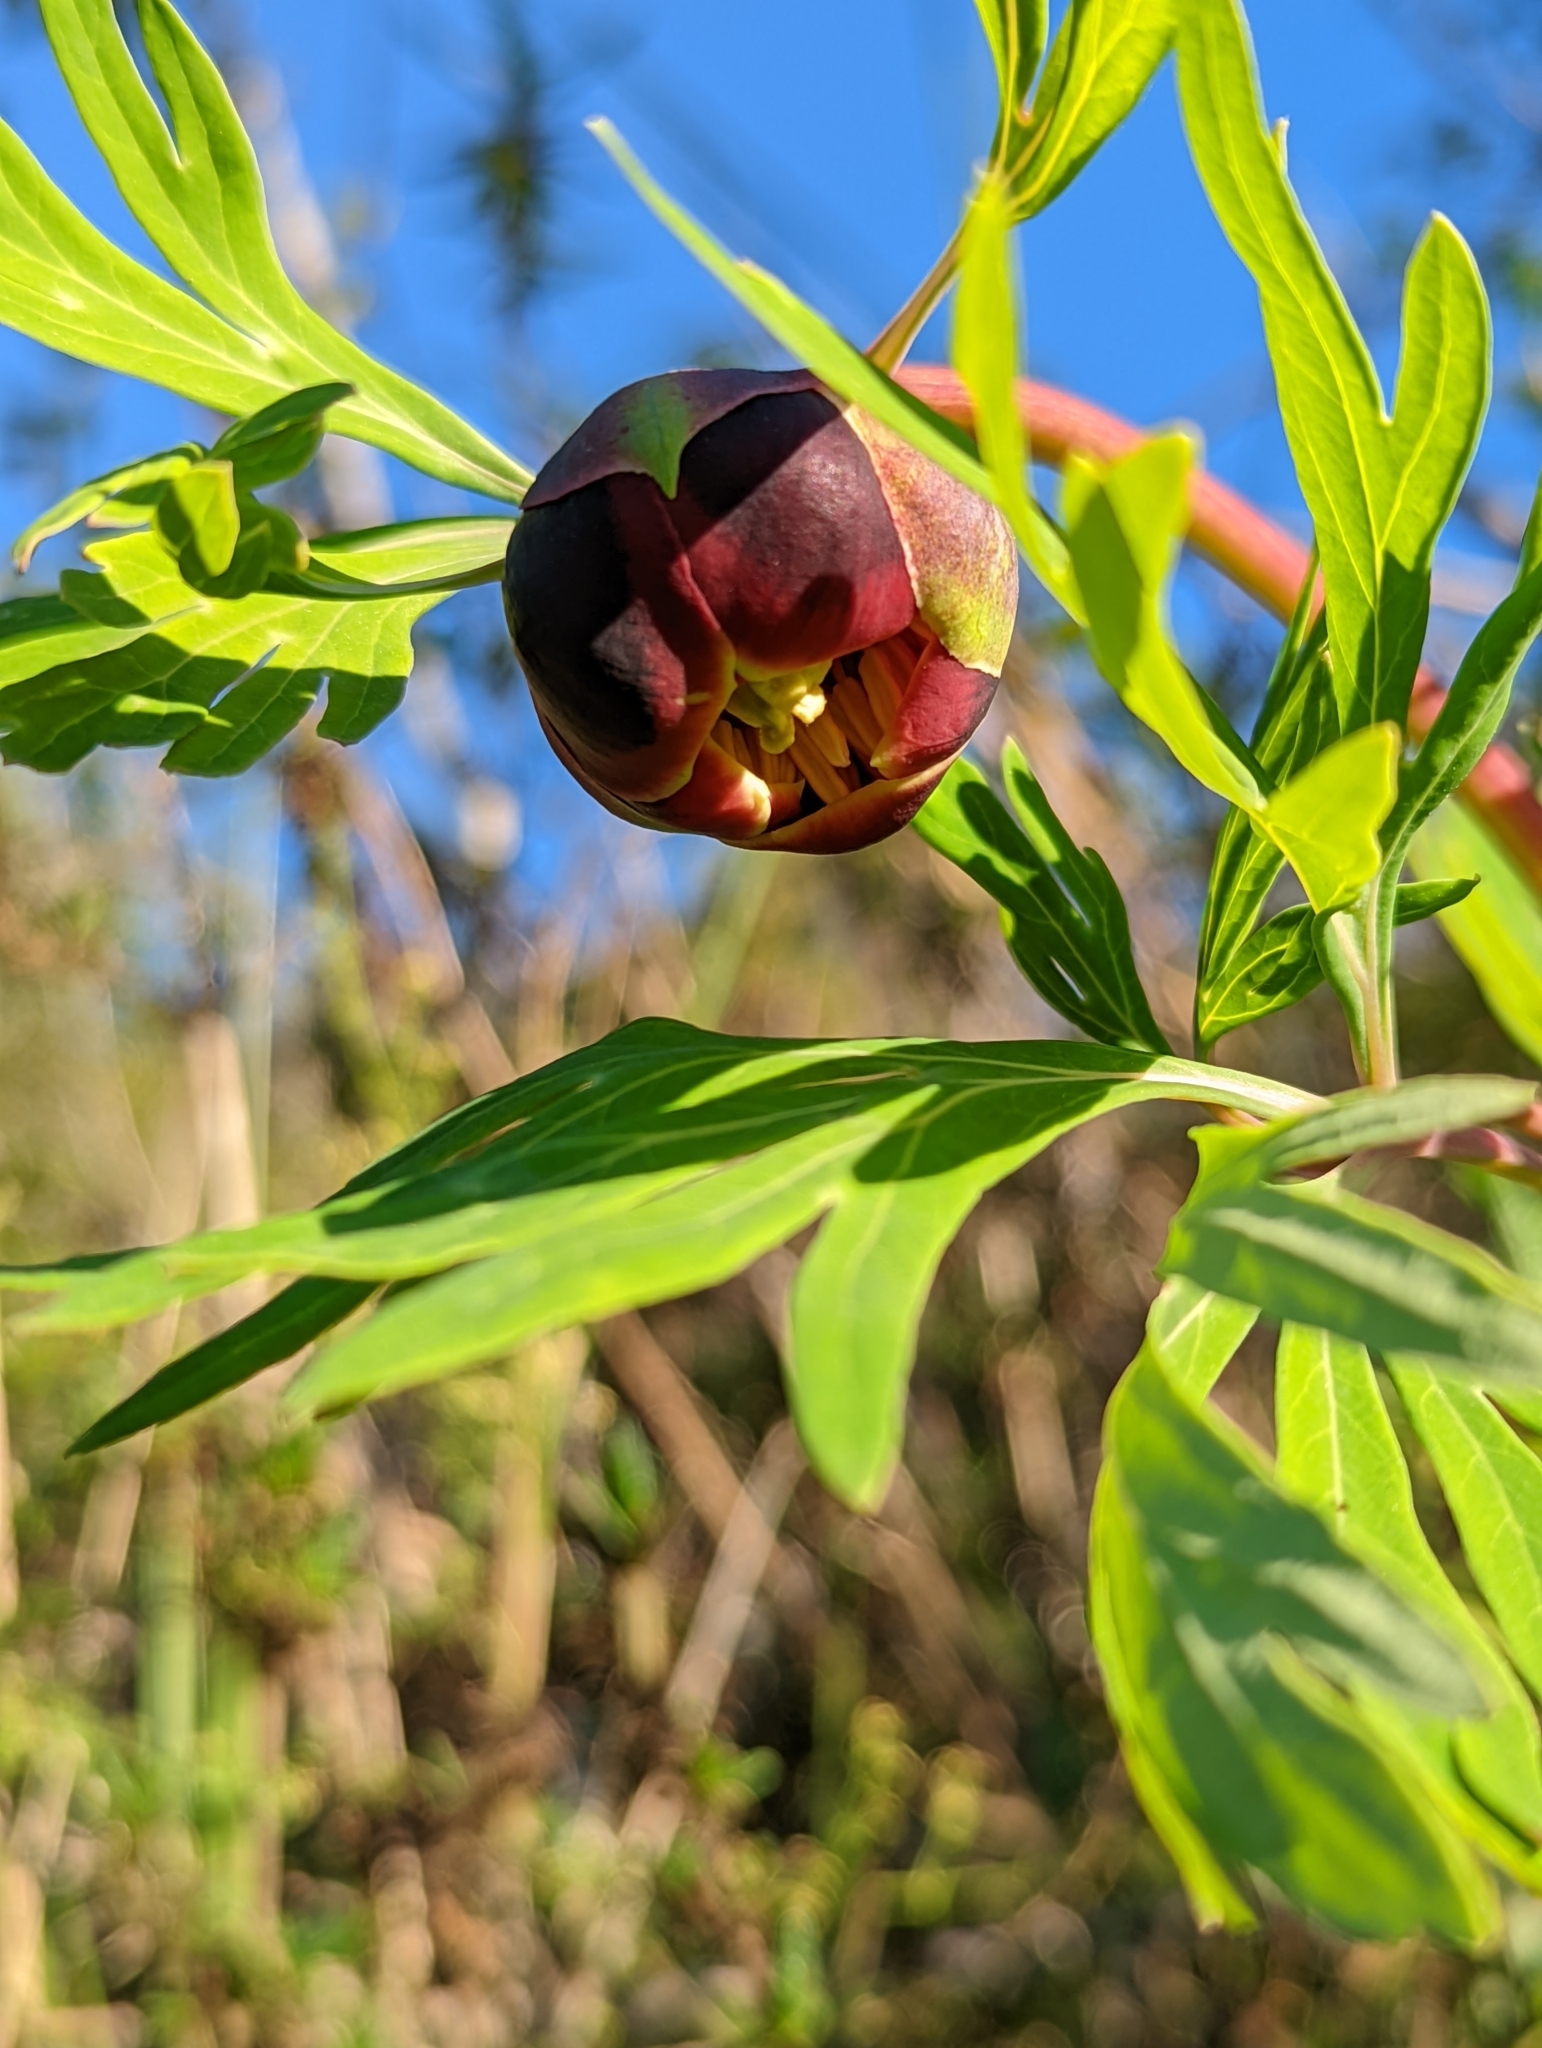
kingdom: Plantae
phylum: Tracheophyta
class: Magnoliopsida
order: Saxifragales
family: Paeoniaceae
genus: Paeonia
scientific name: Paeonia californica
